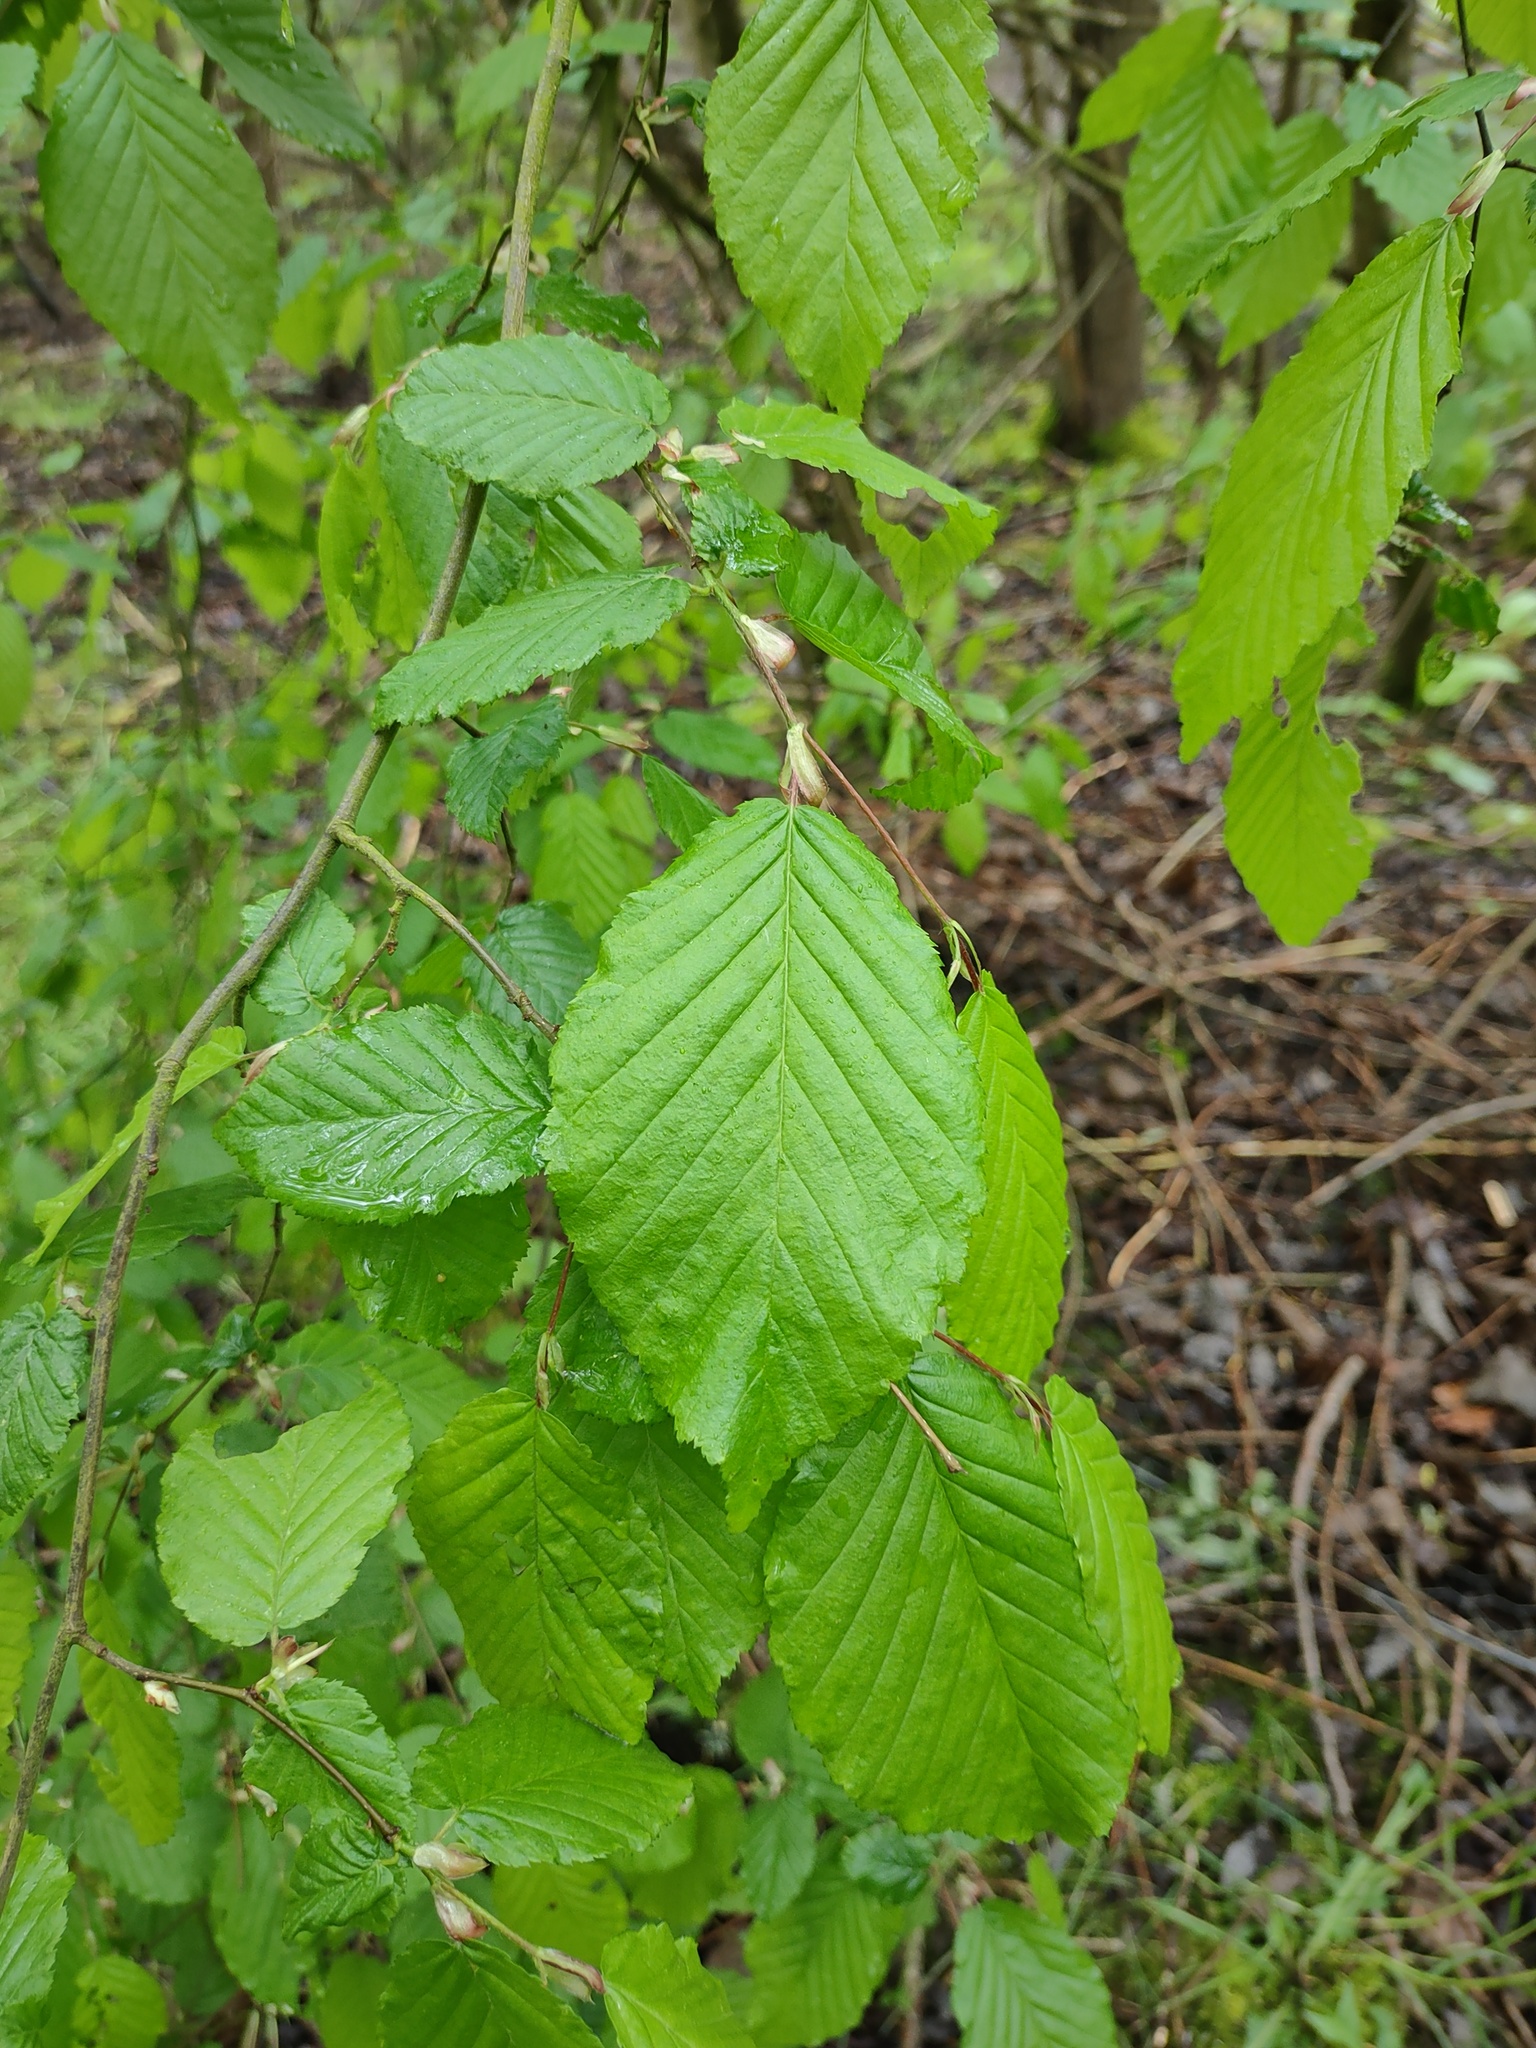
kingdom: Plantae
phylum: Tracheophyta
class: Magnoliopsida
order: Fagales
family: Betulaceae
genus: Carpinus
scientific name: Carpinus betulus
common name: Hornbeam
